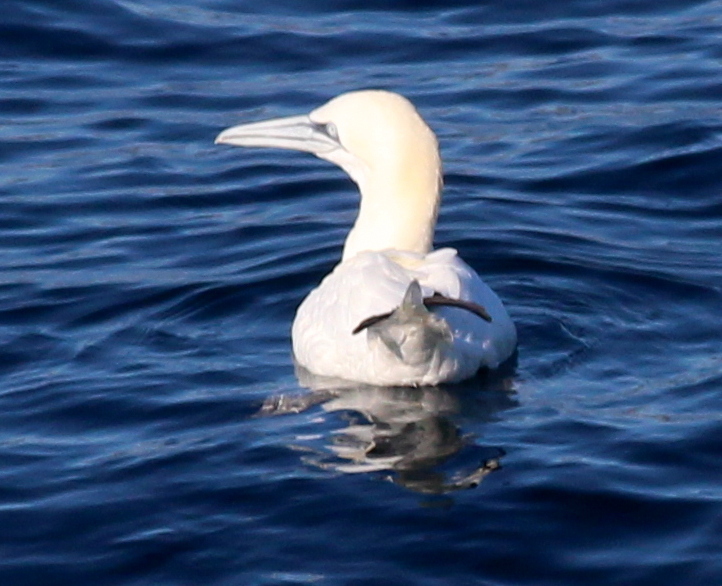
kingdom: Animalia
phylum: Chordata
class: Aves
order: Suliformes
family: Sulidae
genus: Morus
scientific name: Morus bassanus
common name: Northern gannet
